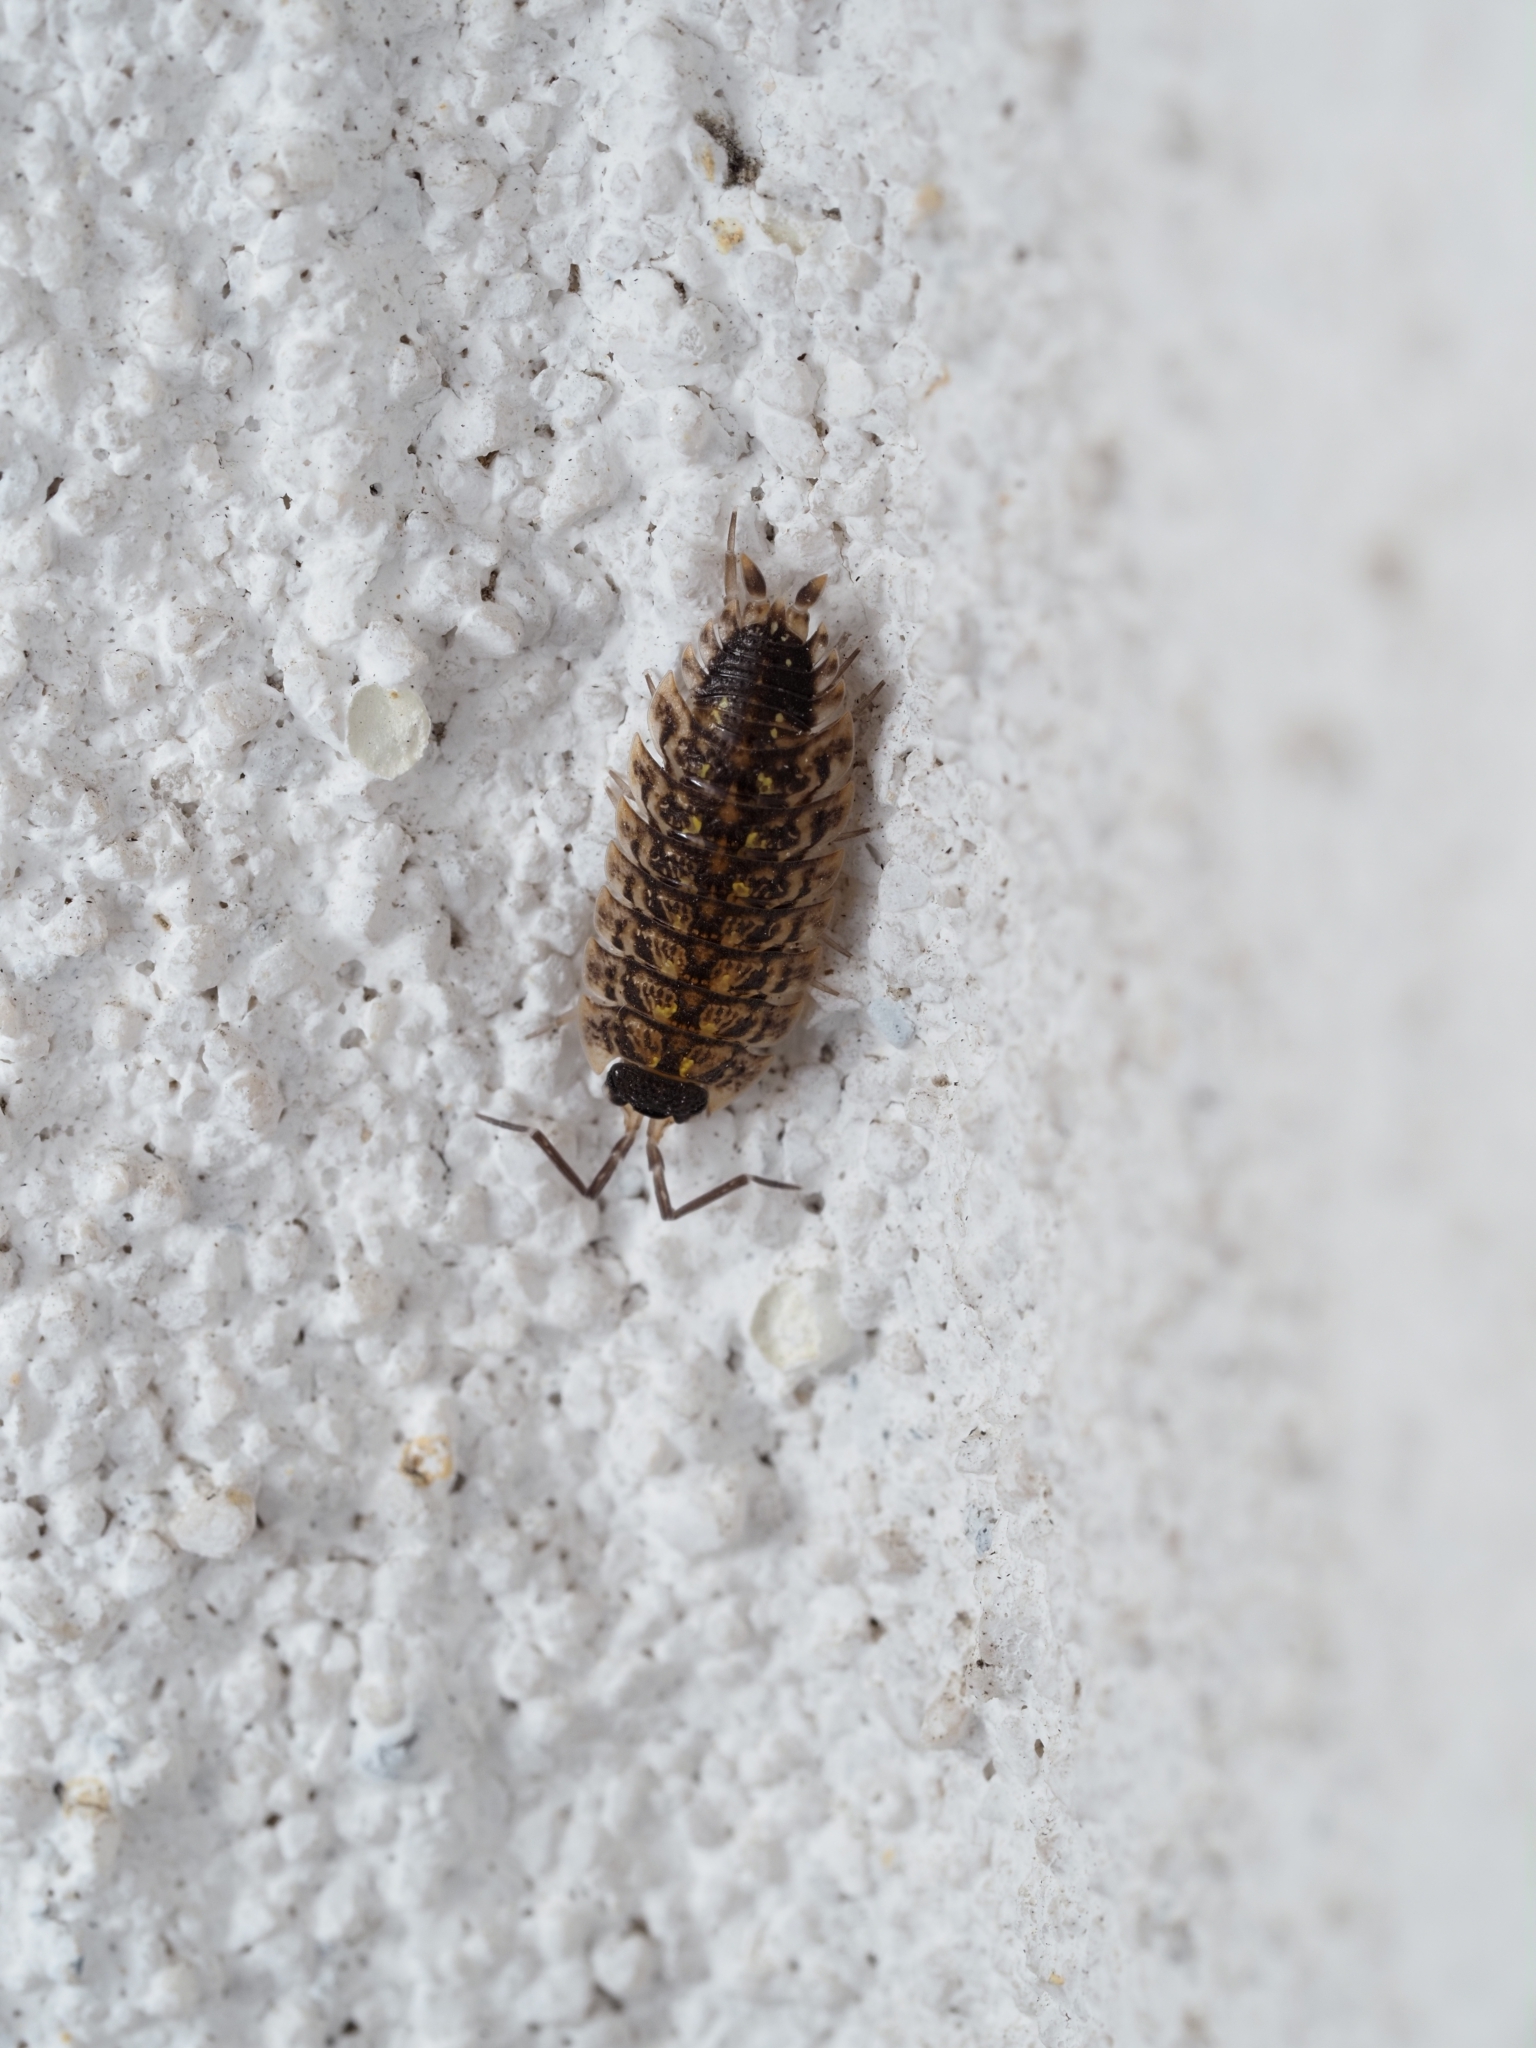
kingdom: Animalia
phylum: Arthropoda
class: Malacostraca
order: Isopoda
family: Porcellionidae
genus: Porcellio
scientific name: Porcellio spinicornis
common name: Painted woodlouse
